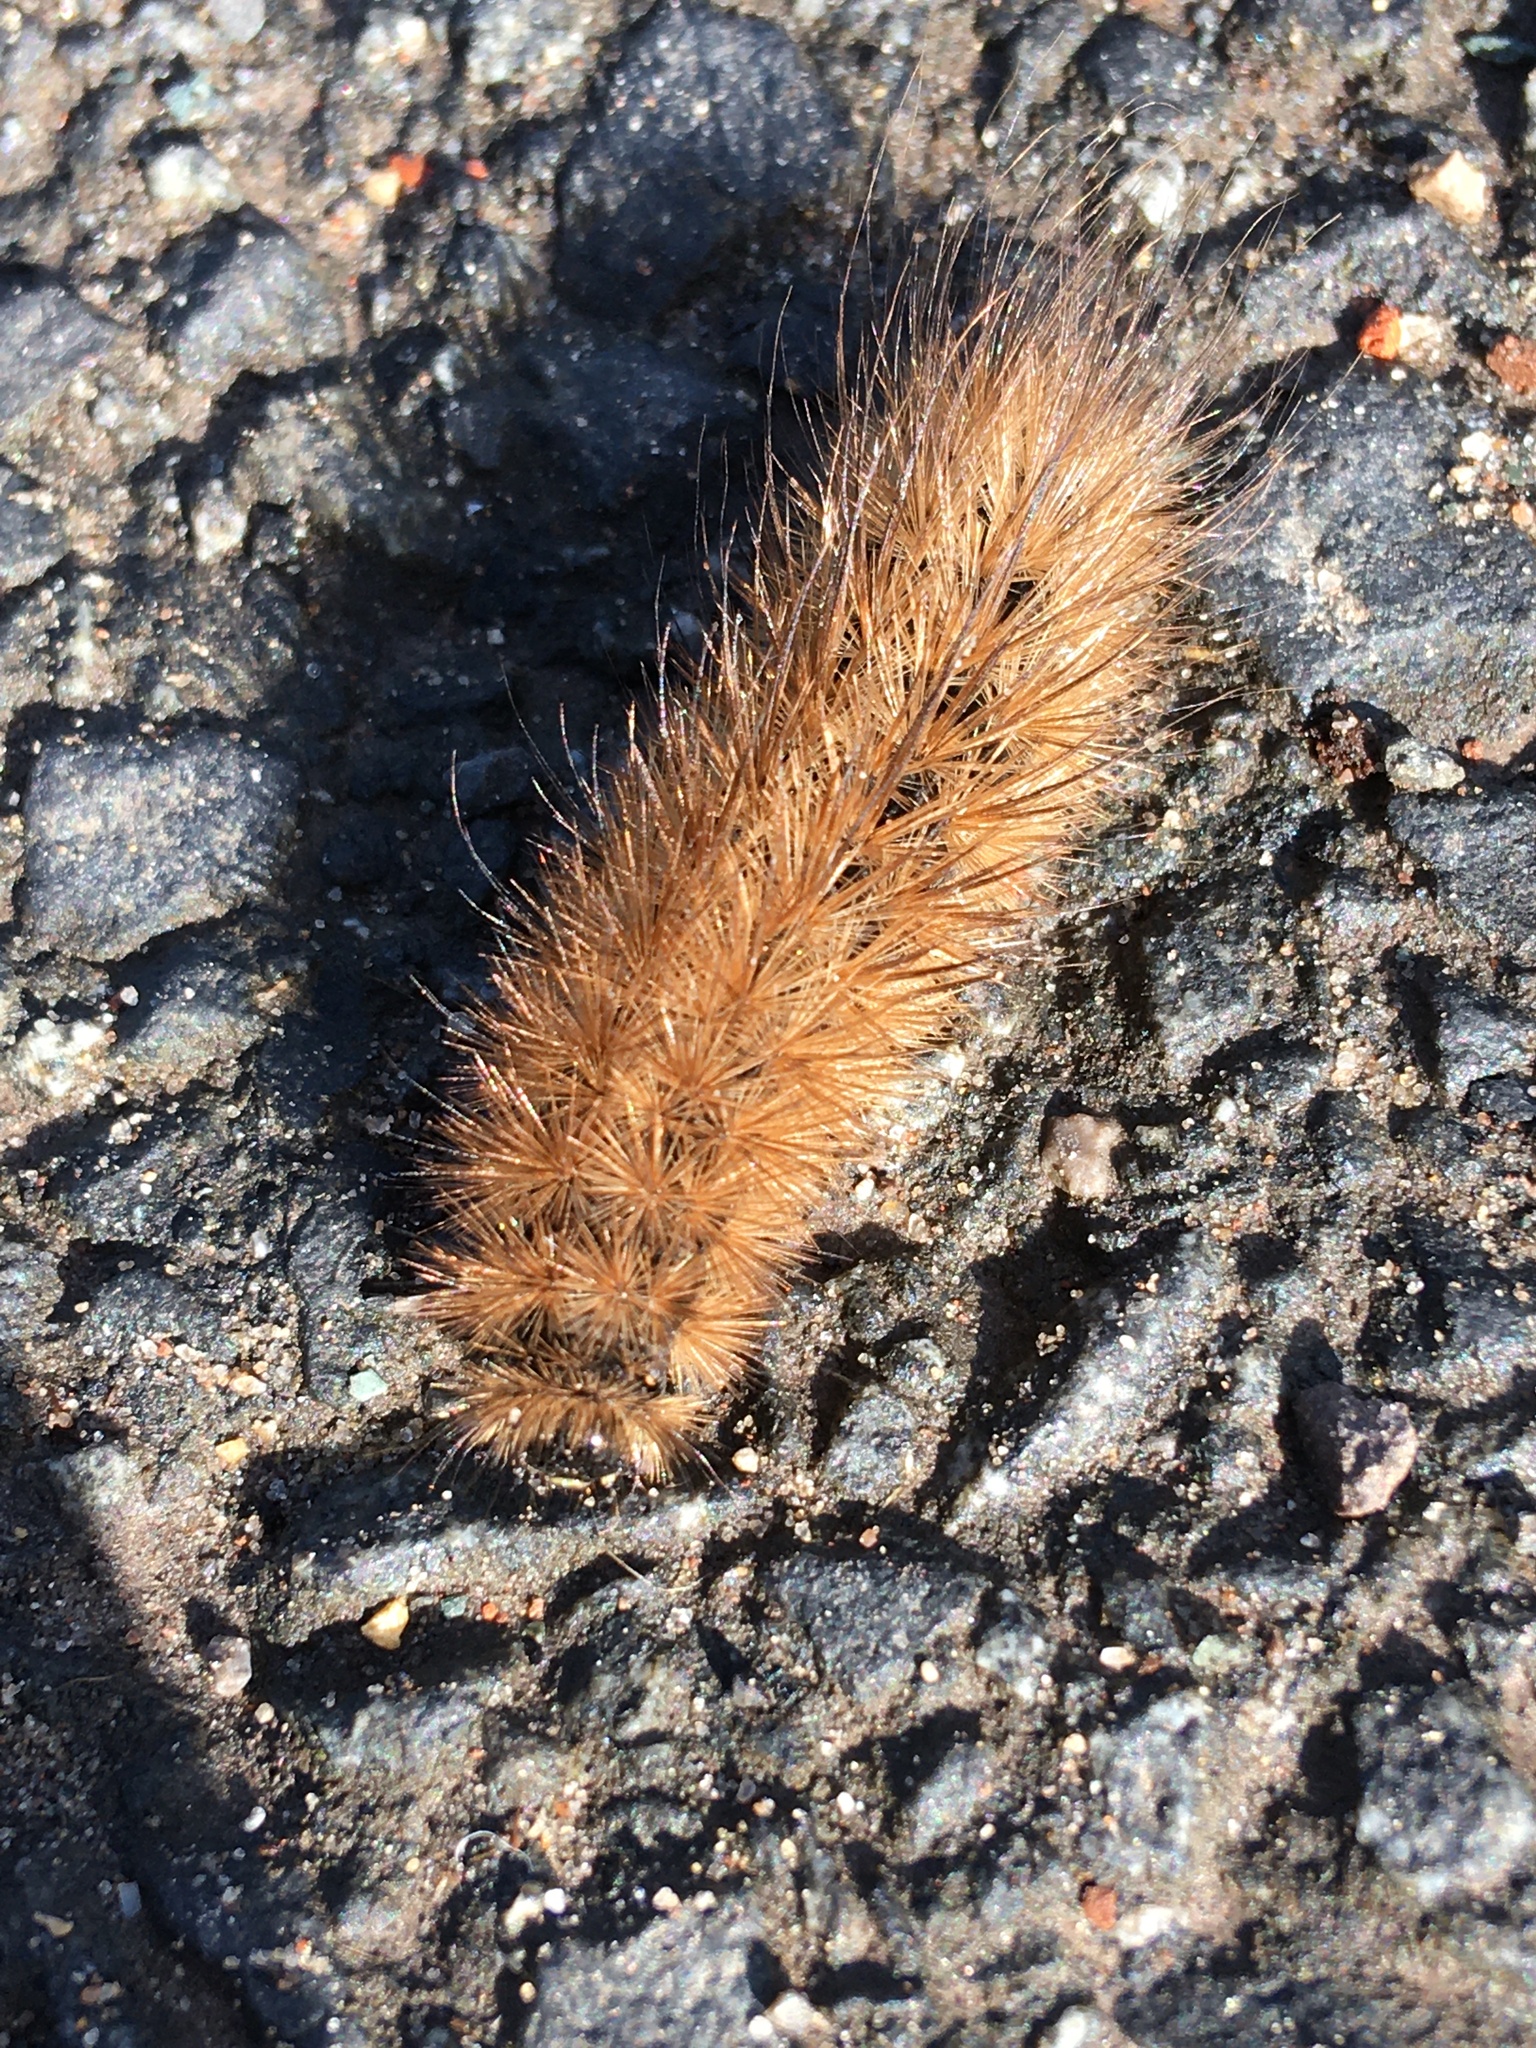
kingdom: Animalia
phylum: Arthropoda
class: Insecta
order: Lepidoptera
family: Erebidae
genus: Phragmatobia
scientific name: Phragmatobia fuliginosa
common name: Ruby tiger
